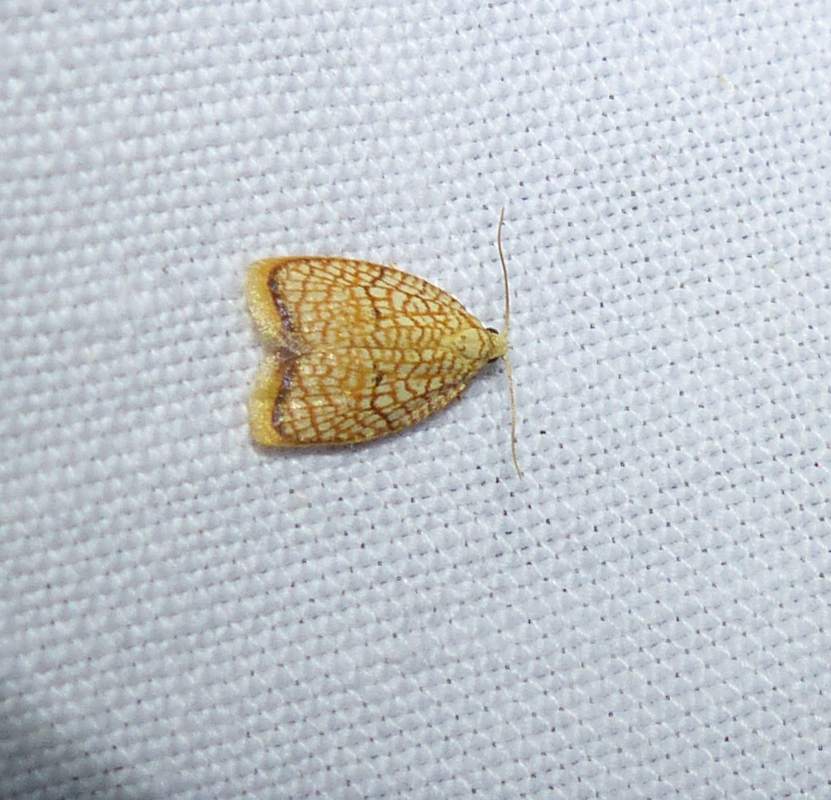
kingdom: Animalia
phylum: Arthropoda
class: Insecta
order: Lepidoptera
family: Tortricidae
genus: Acleris
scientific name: Acleris forsskaleana
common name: Maple button
